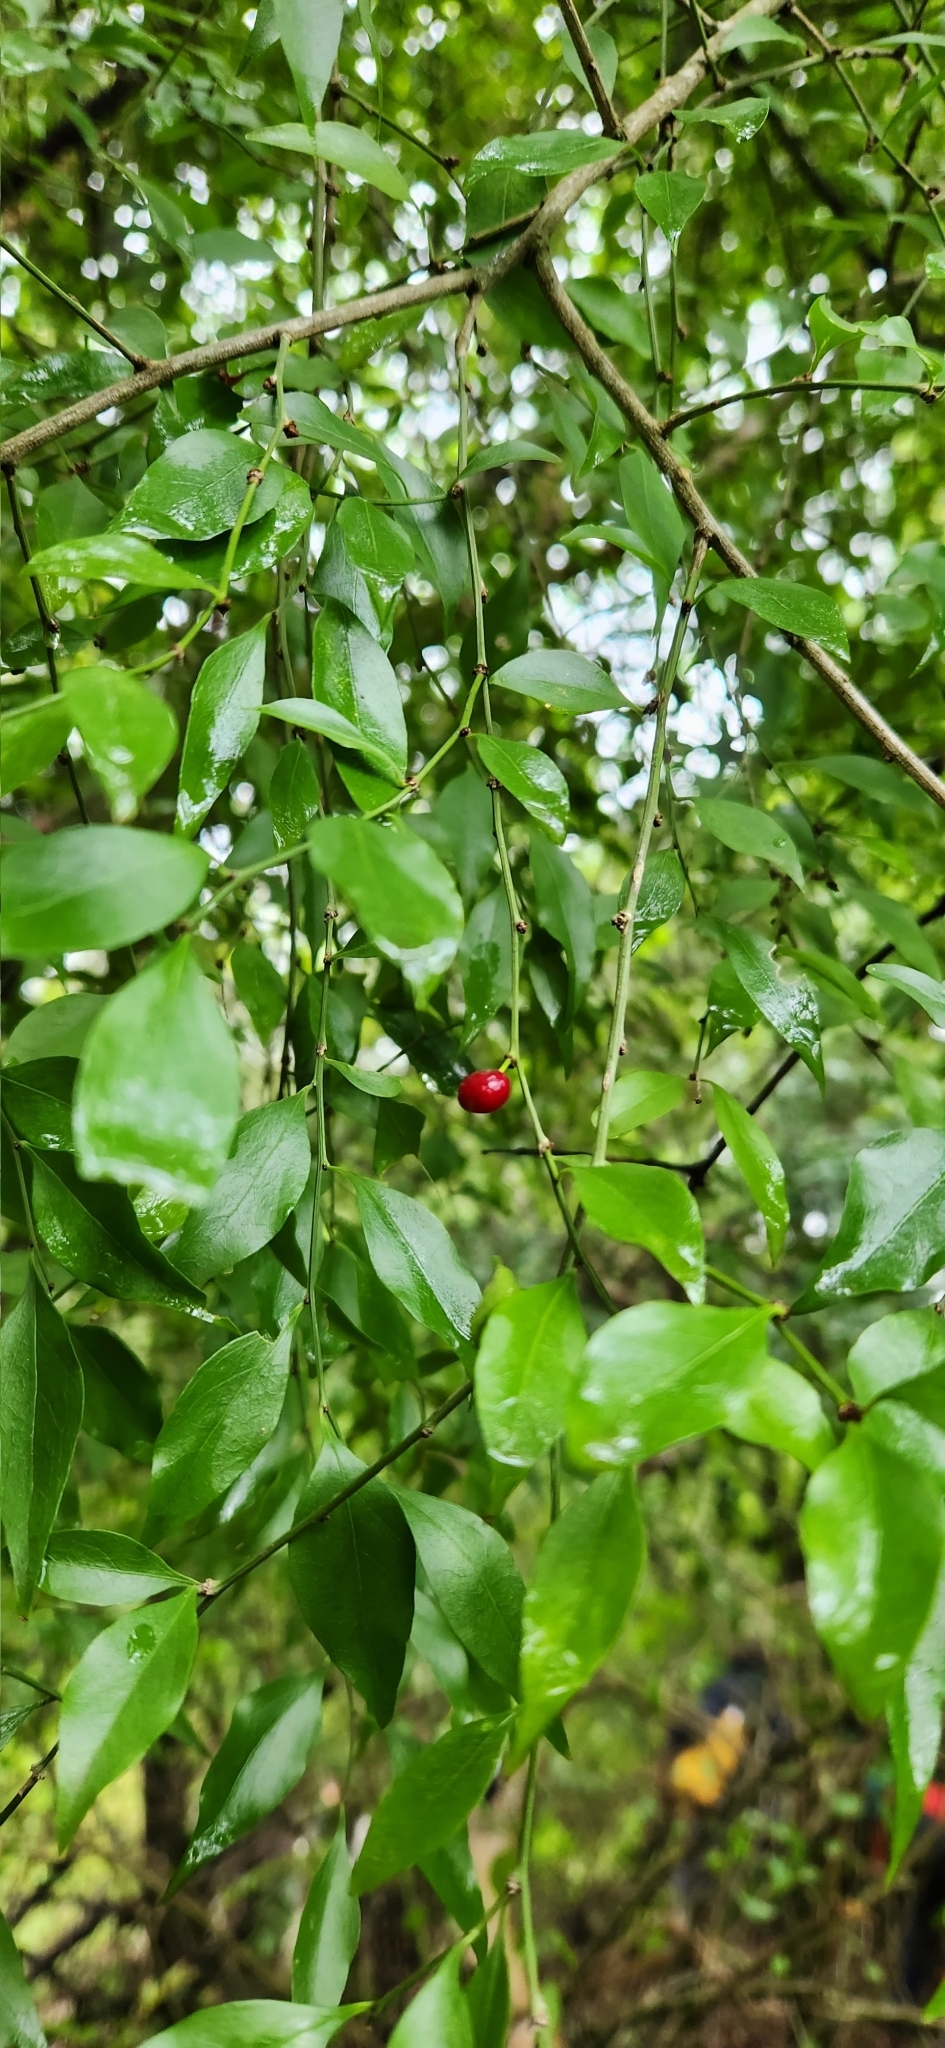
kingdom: Plantae
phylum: Tracheophyta
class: Magnoliopsida
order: Celastrales
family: Celastraceae
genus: Schaefferia
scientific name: Schaefferia argentinensis
